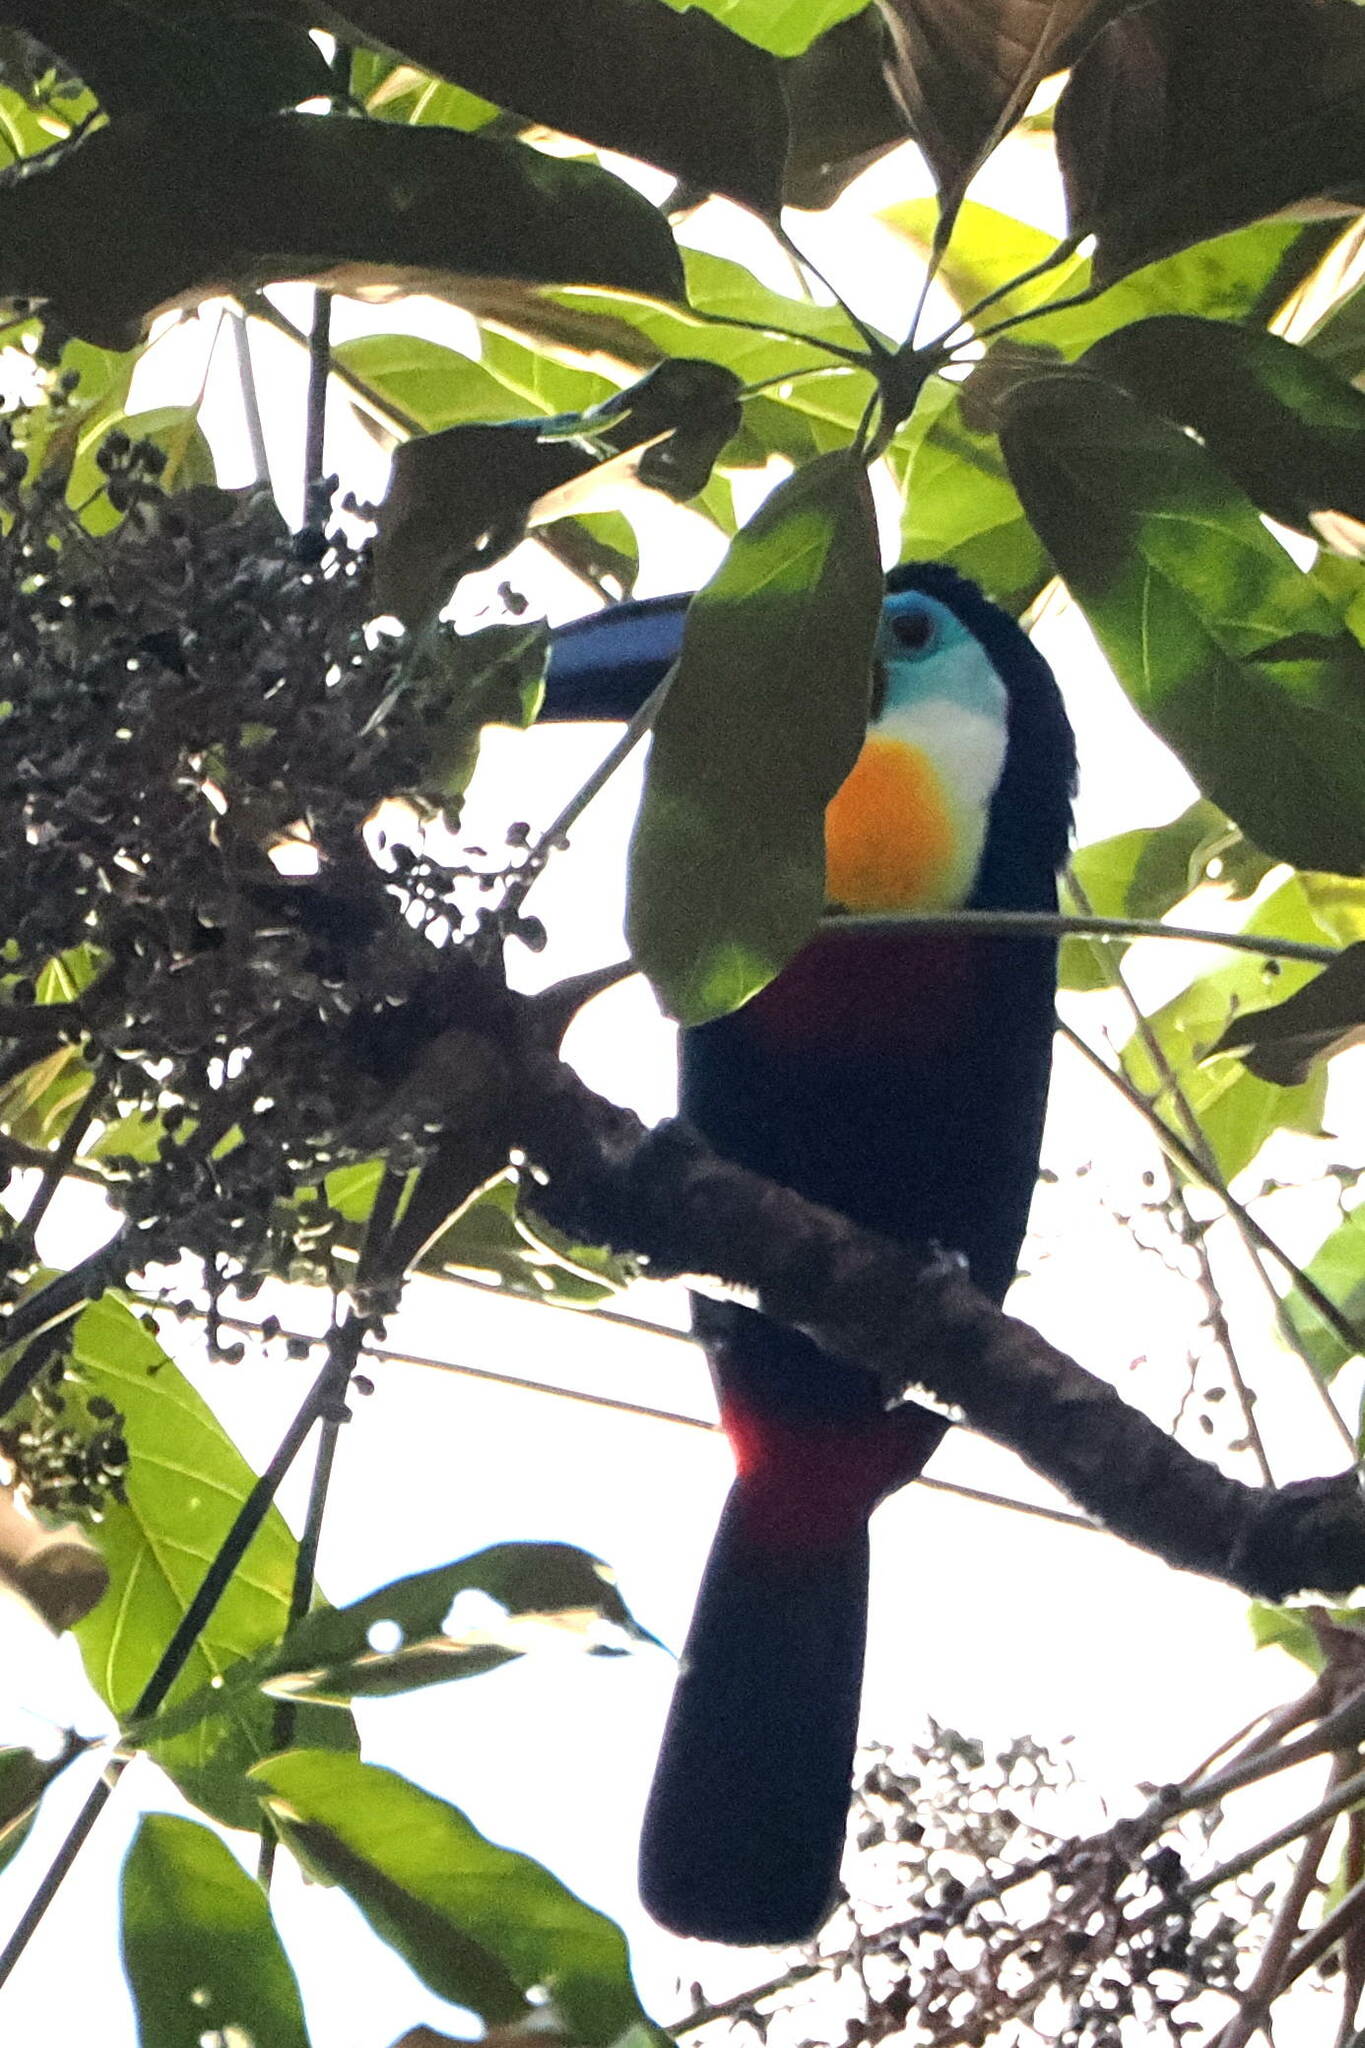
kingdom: Animalia
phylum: Chordata
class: Aves
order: Piciformes
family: Ramphastidae
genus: Ramphastos
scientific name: Ramphastos vitellinus
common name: Channel-billed toucan
